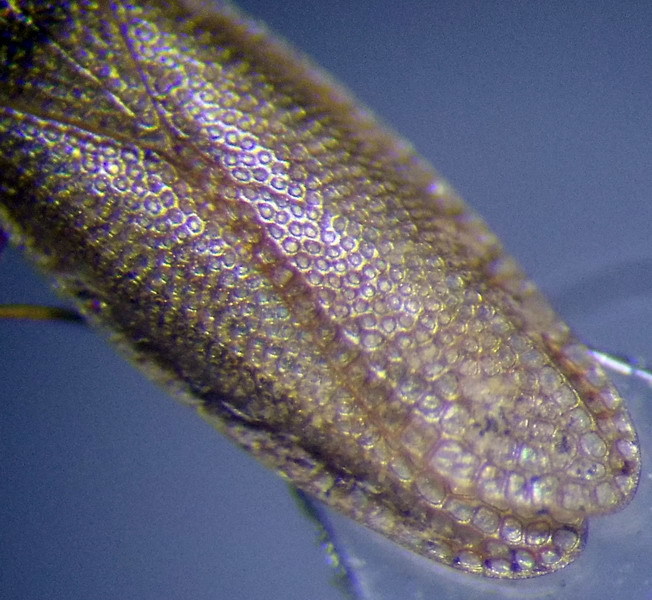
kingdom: Animalia
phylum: Arthropoda
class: Insecta
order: Hemiptera
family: Tingidae
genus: Agramma
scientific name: Agramma atricapillum
